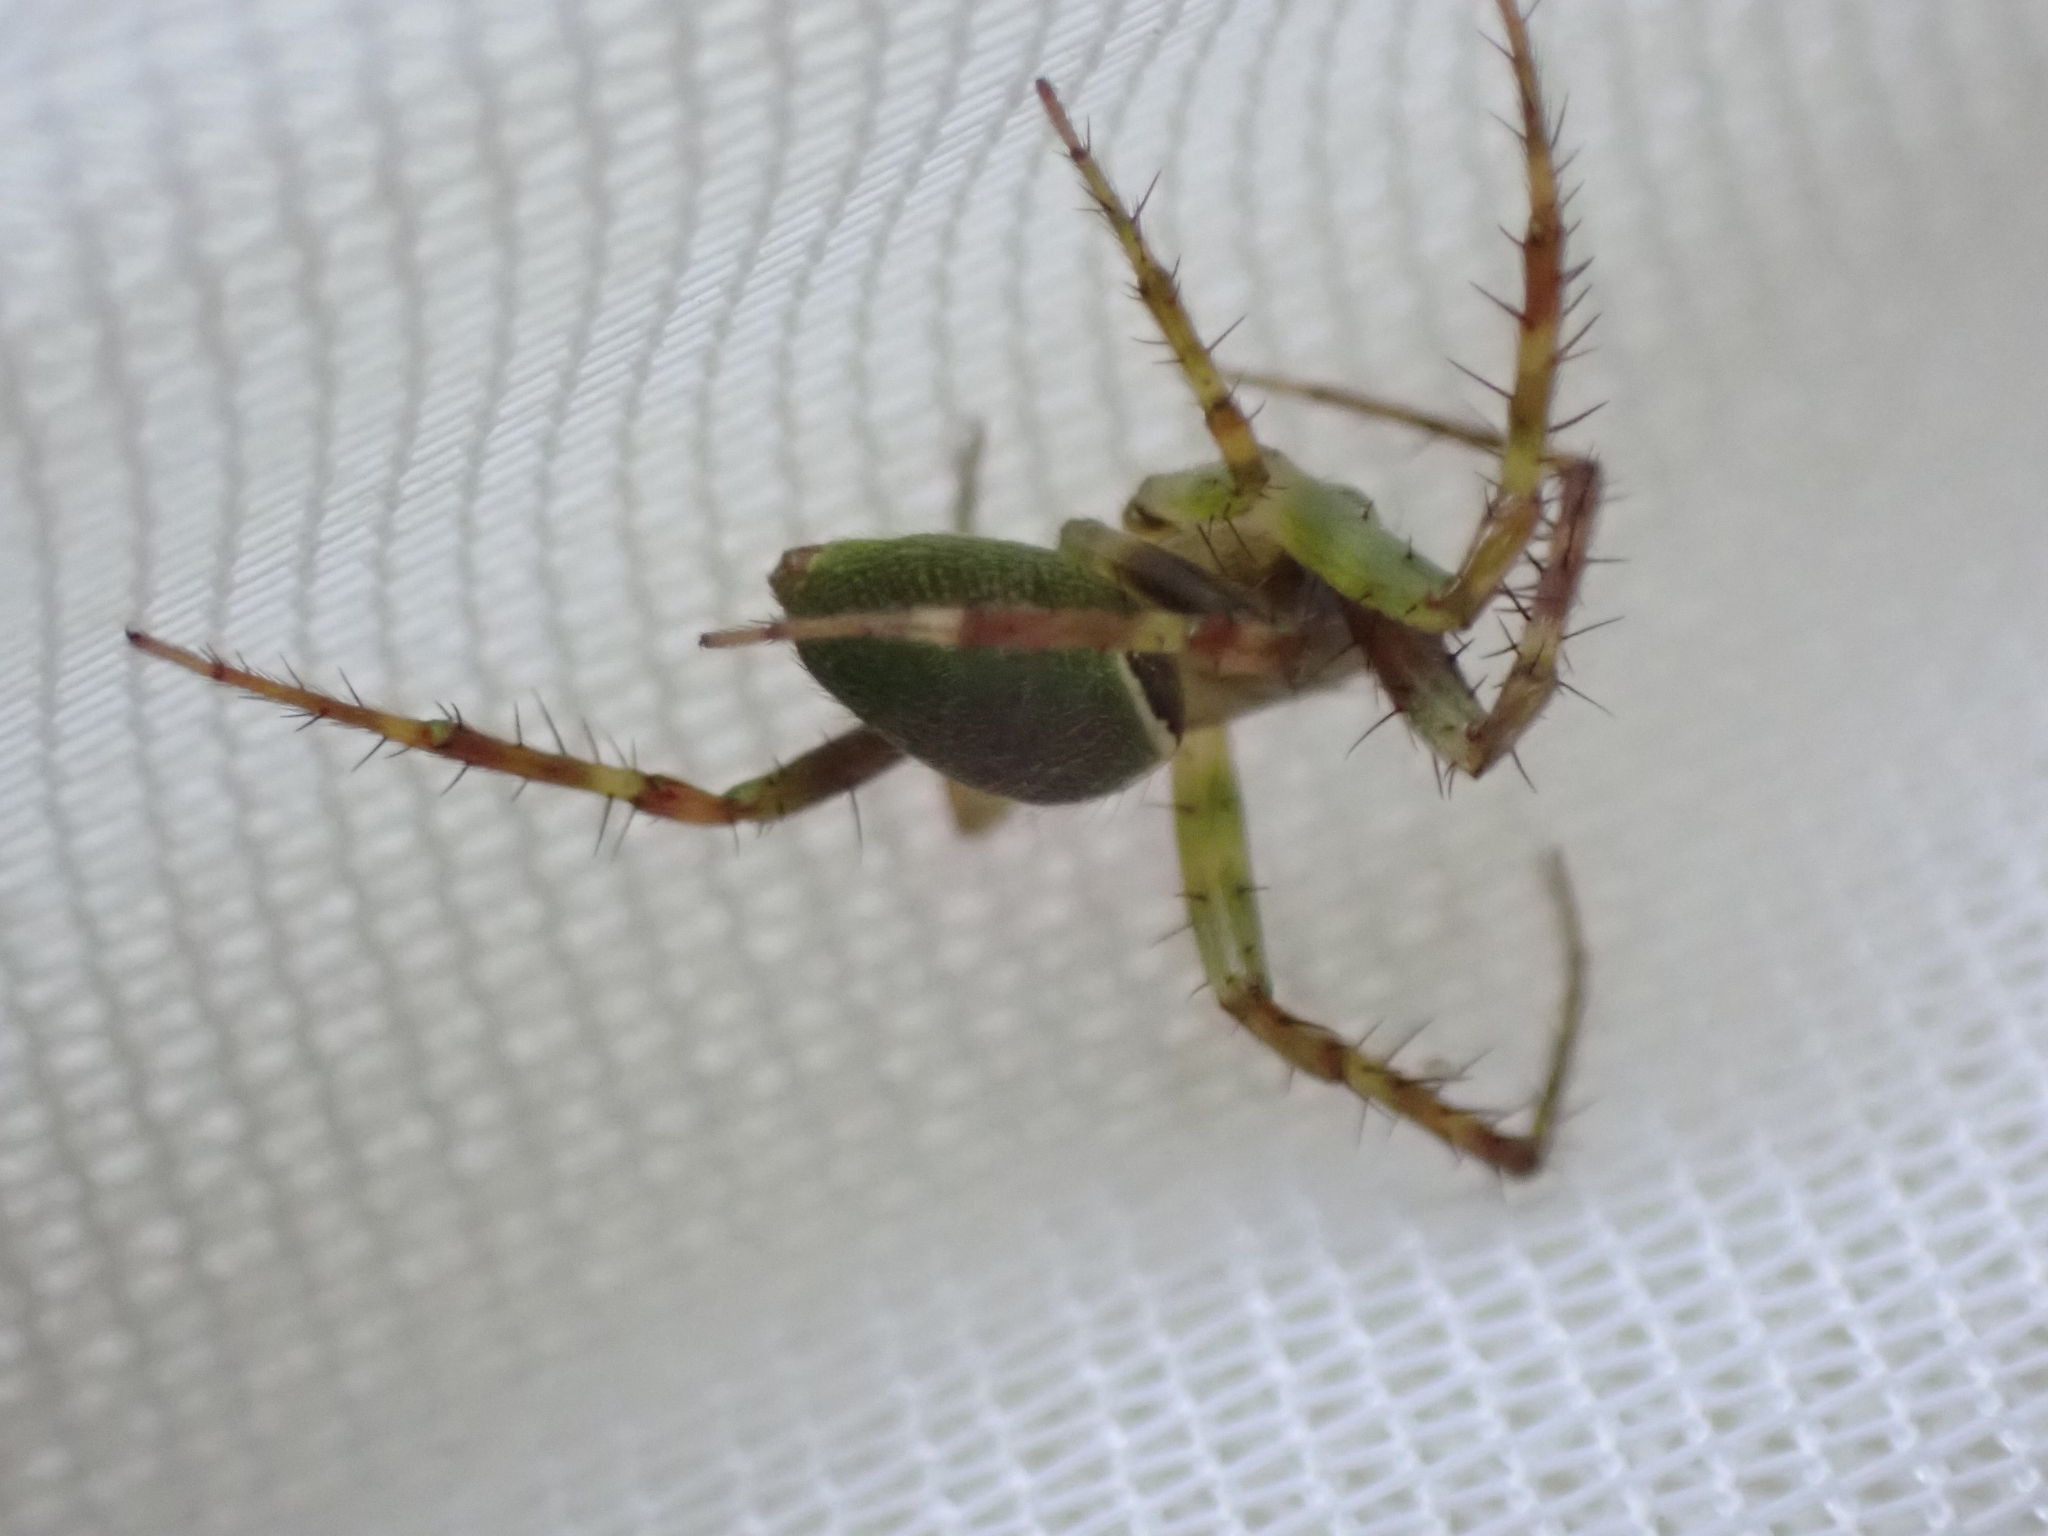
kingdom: Animalia
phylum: Arthropoda
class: Arachnida
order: Araneae
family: Araneidae
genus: Colaranea
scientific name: Colaranea viriditas
